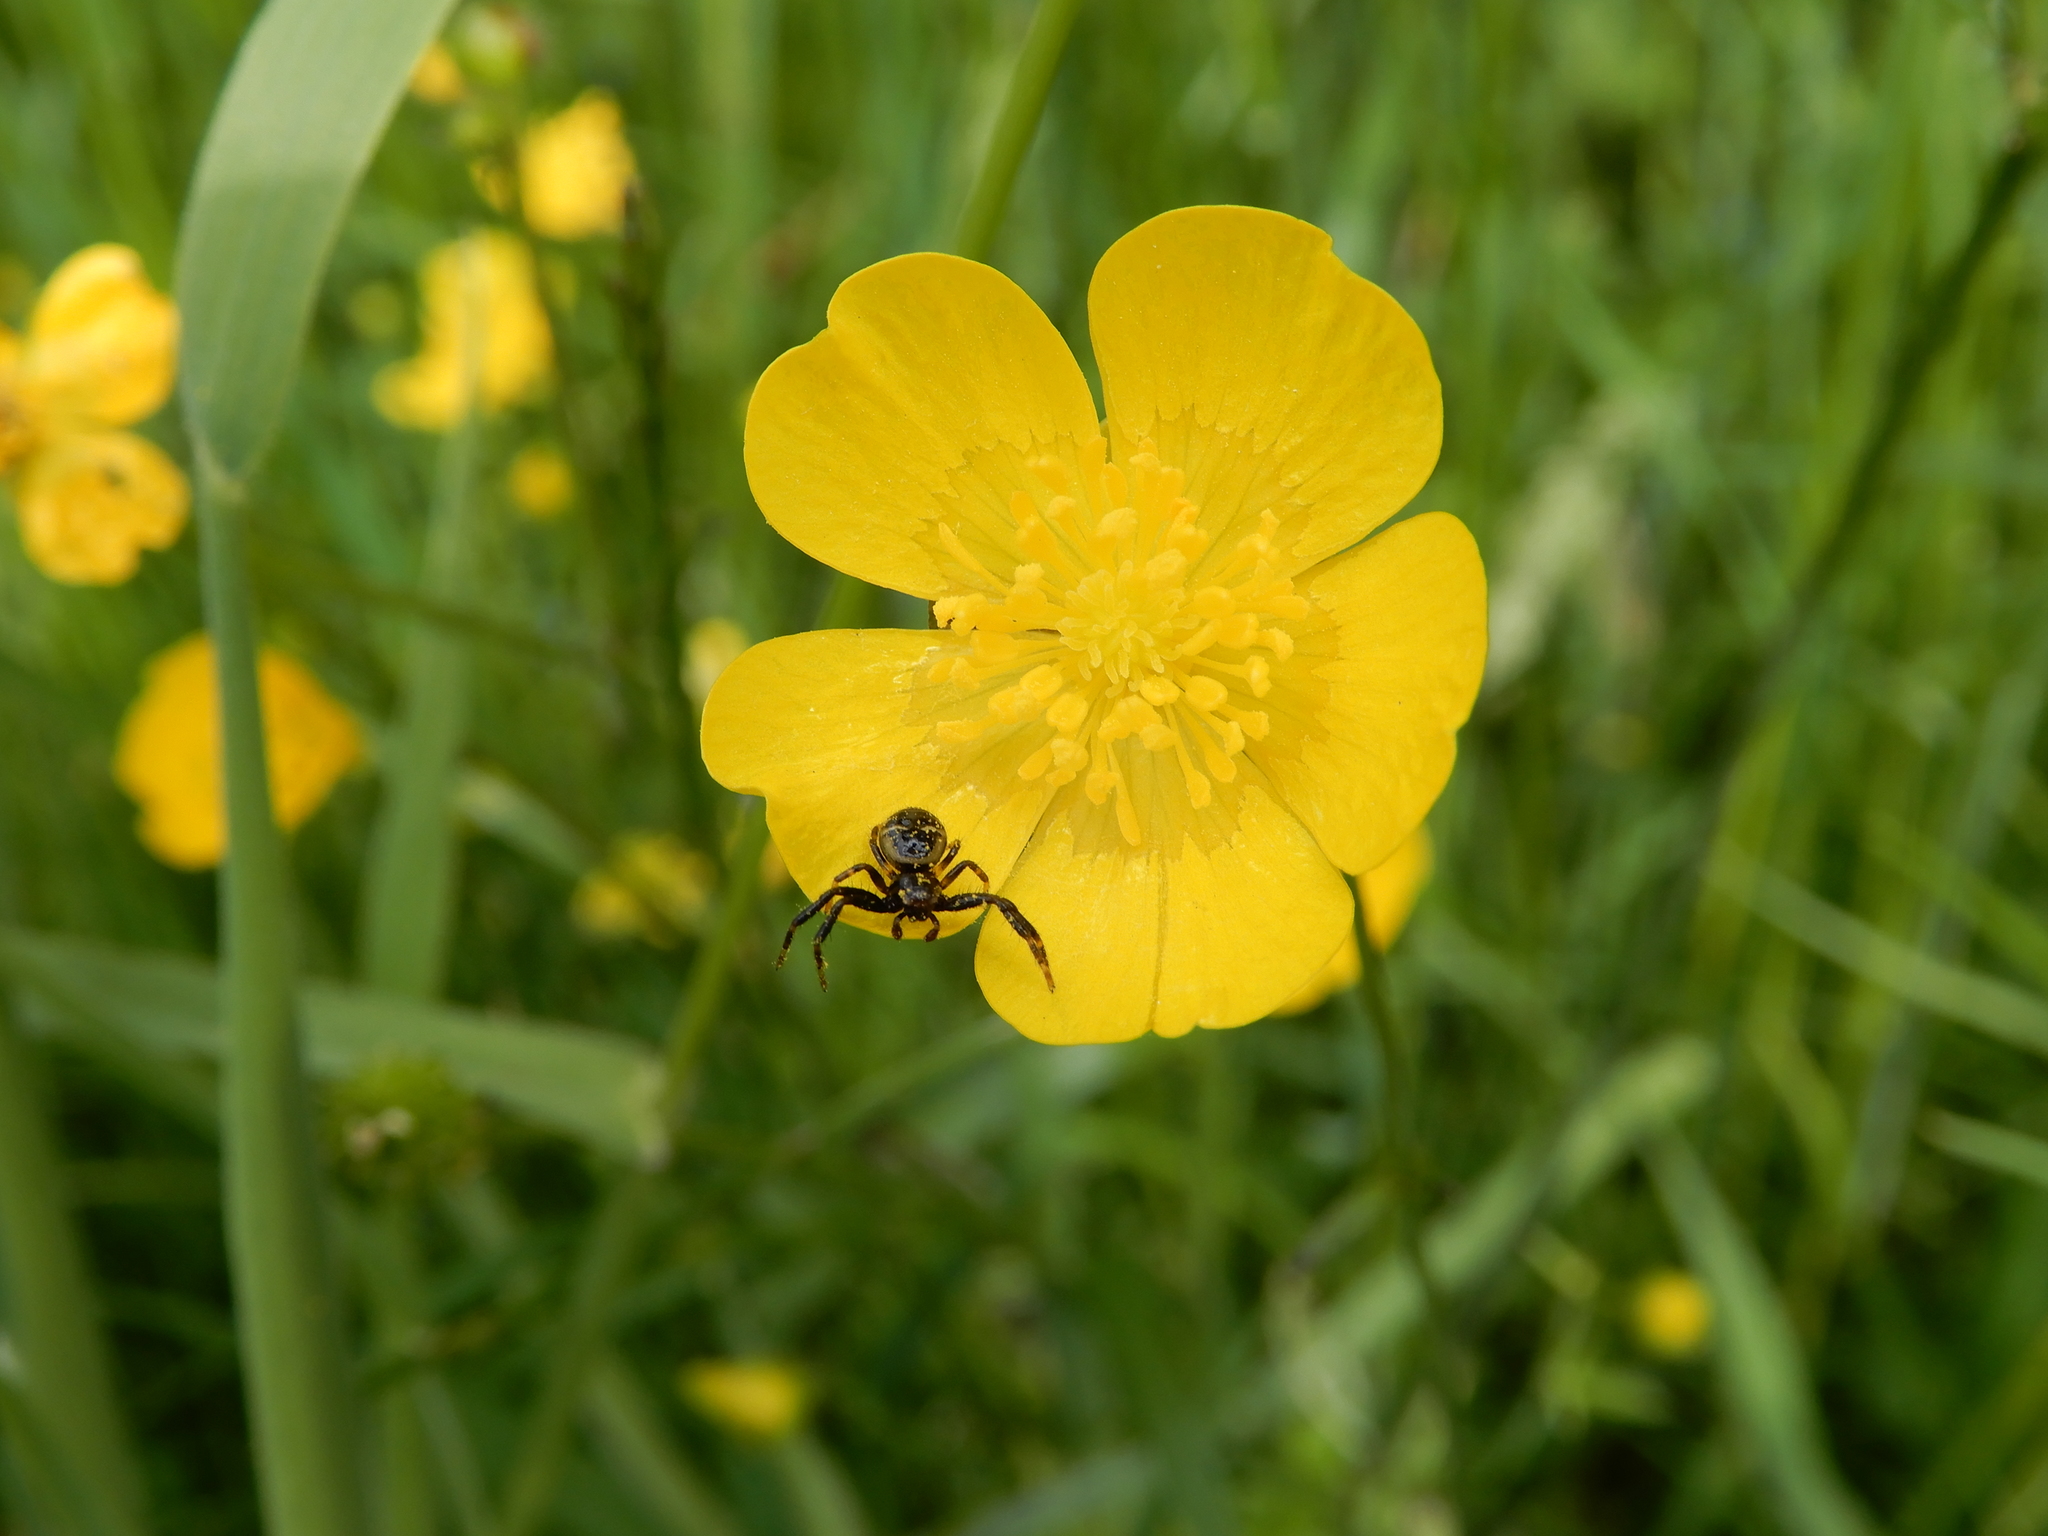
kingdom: Animalia
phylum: Arthropoda
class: Arachnida
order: Araneae
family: Thomisidae
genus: Synema
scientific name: Synema globosum
